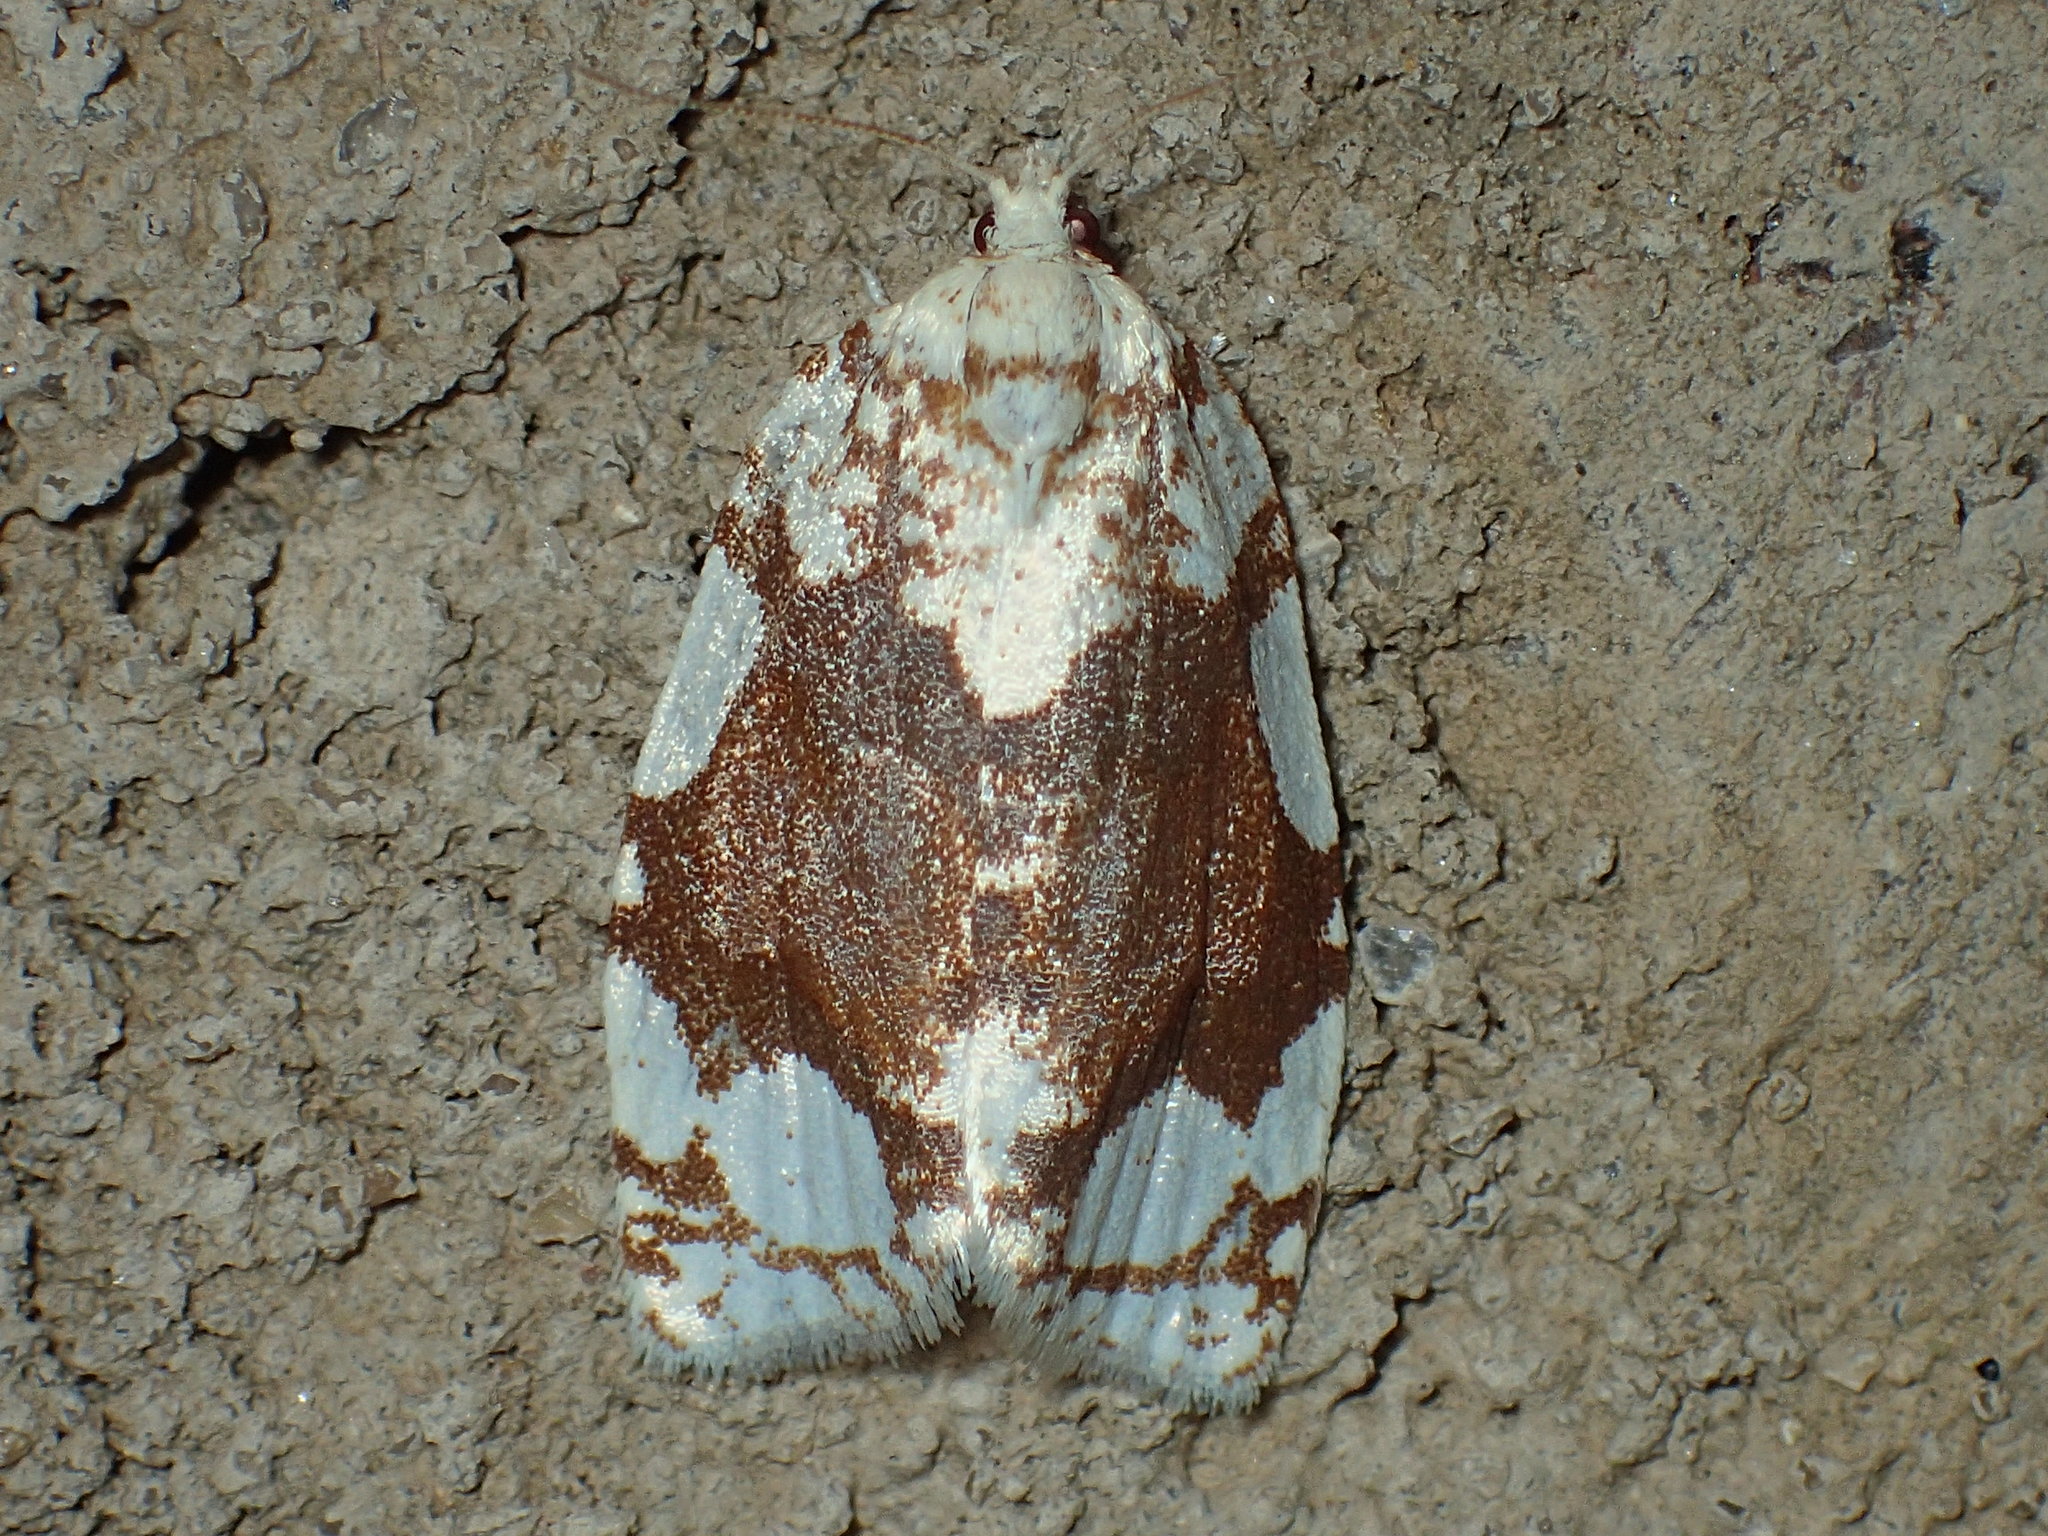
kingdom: Animalia
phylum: Arthropoda
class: Insecta
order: Lepidoptera
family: Tortricidae
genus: Argyrotaenia
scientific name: Argyrotaenia alisellana
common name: White-spotted leafroller moth
